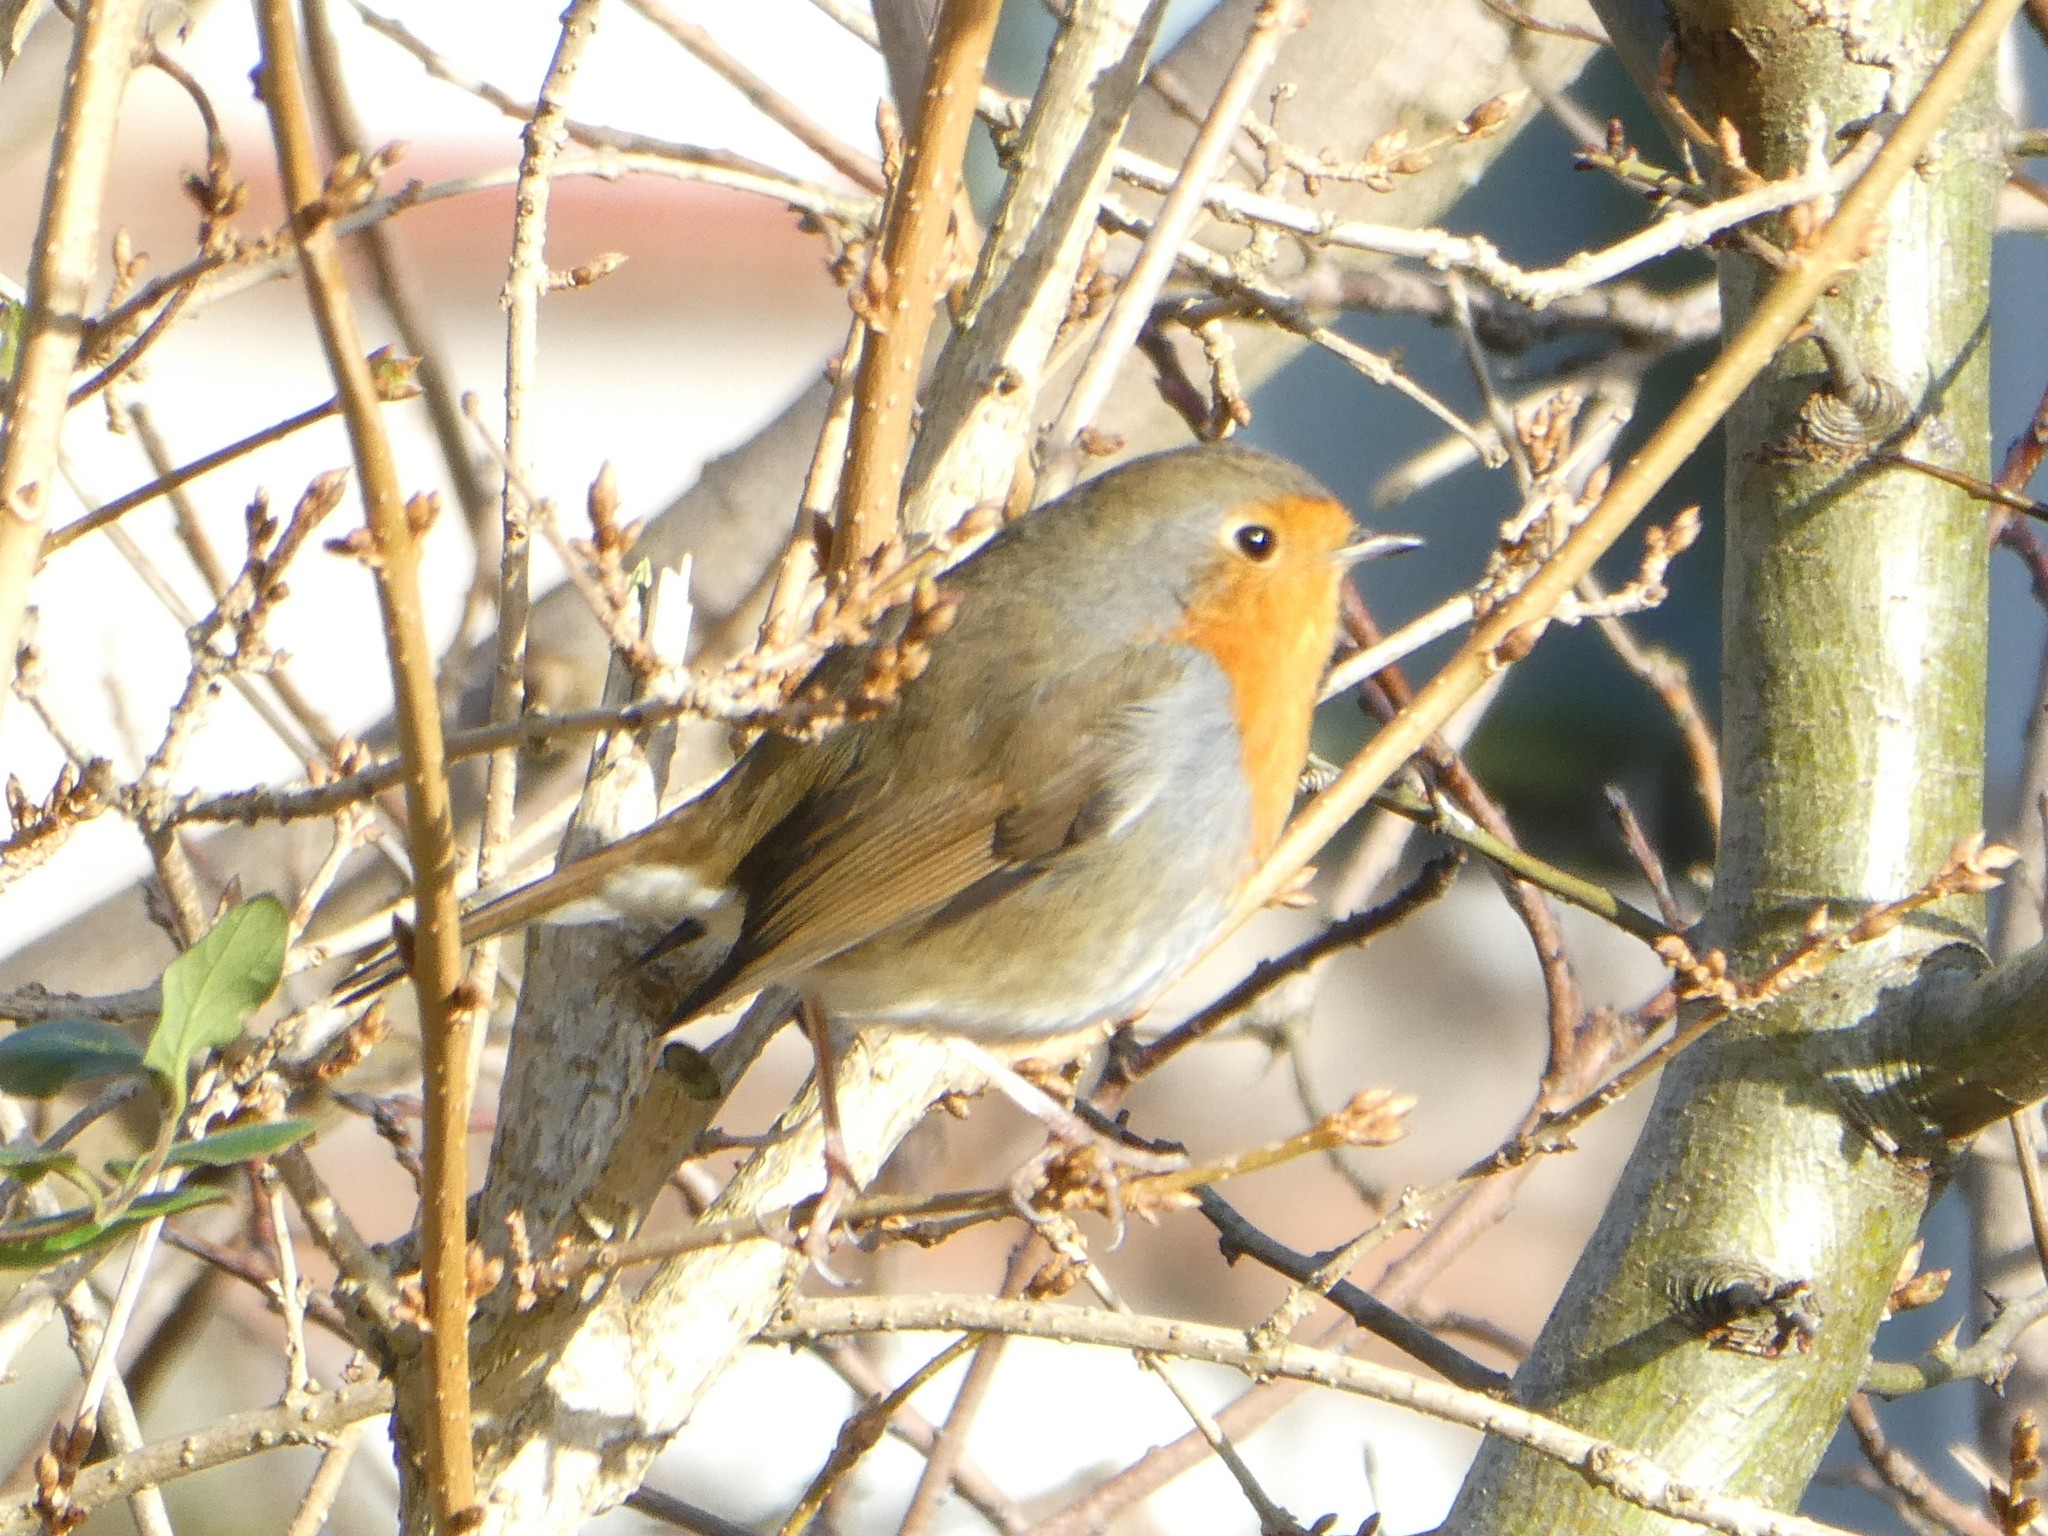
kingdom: Animalia
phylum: Chordata
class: Aves
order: Passeriformes
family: Muscicapidae
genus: Erithacus
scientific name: Erithacus rubecula
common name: European robin
